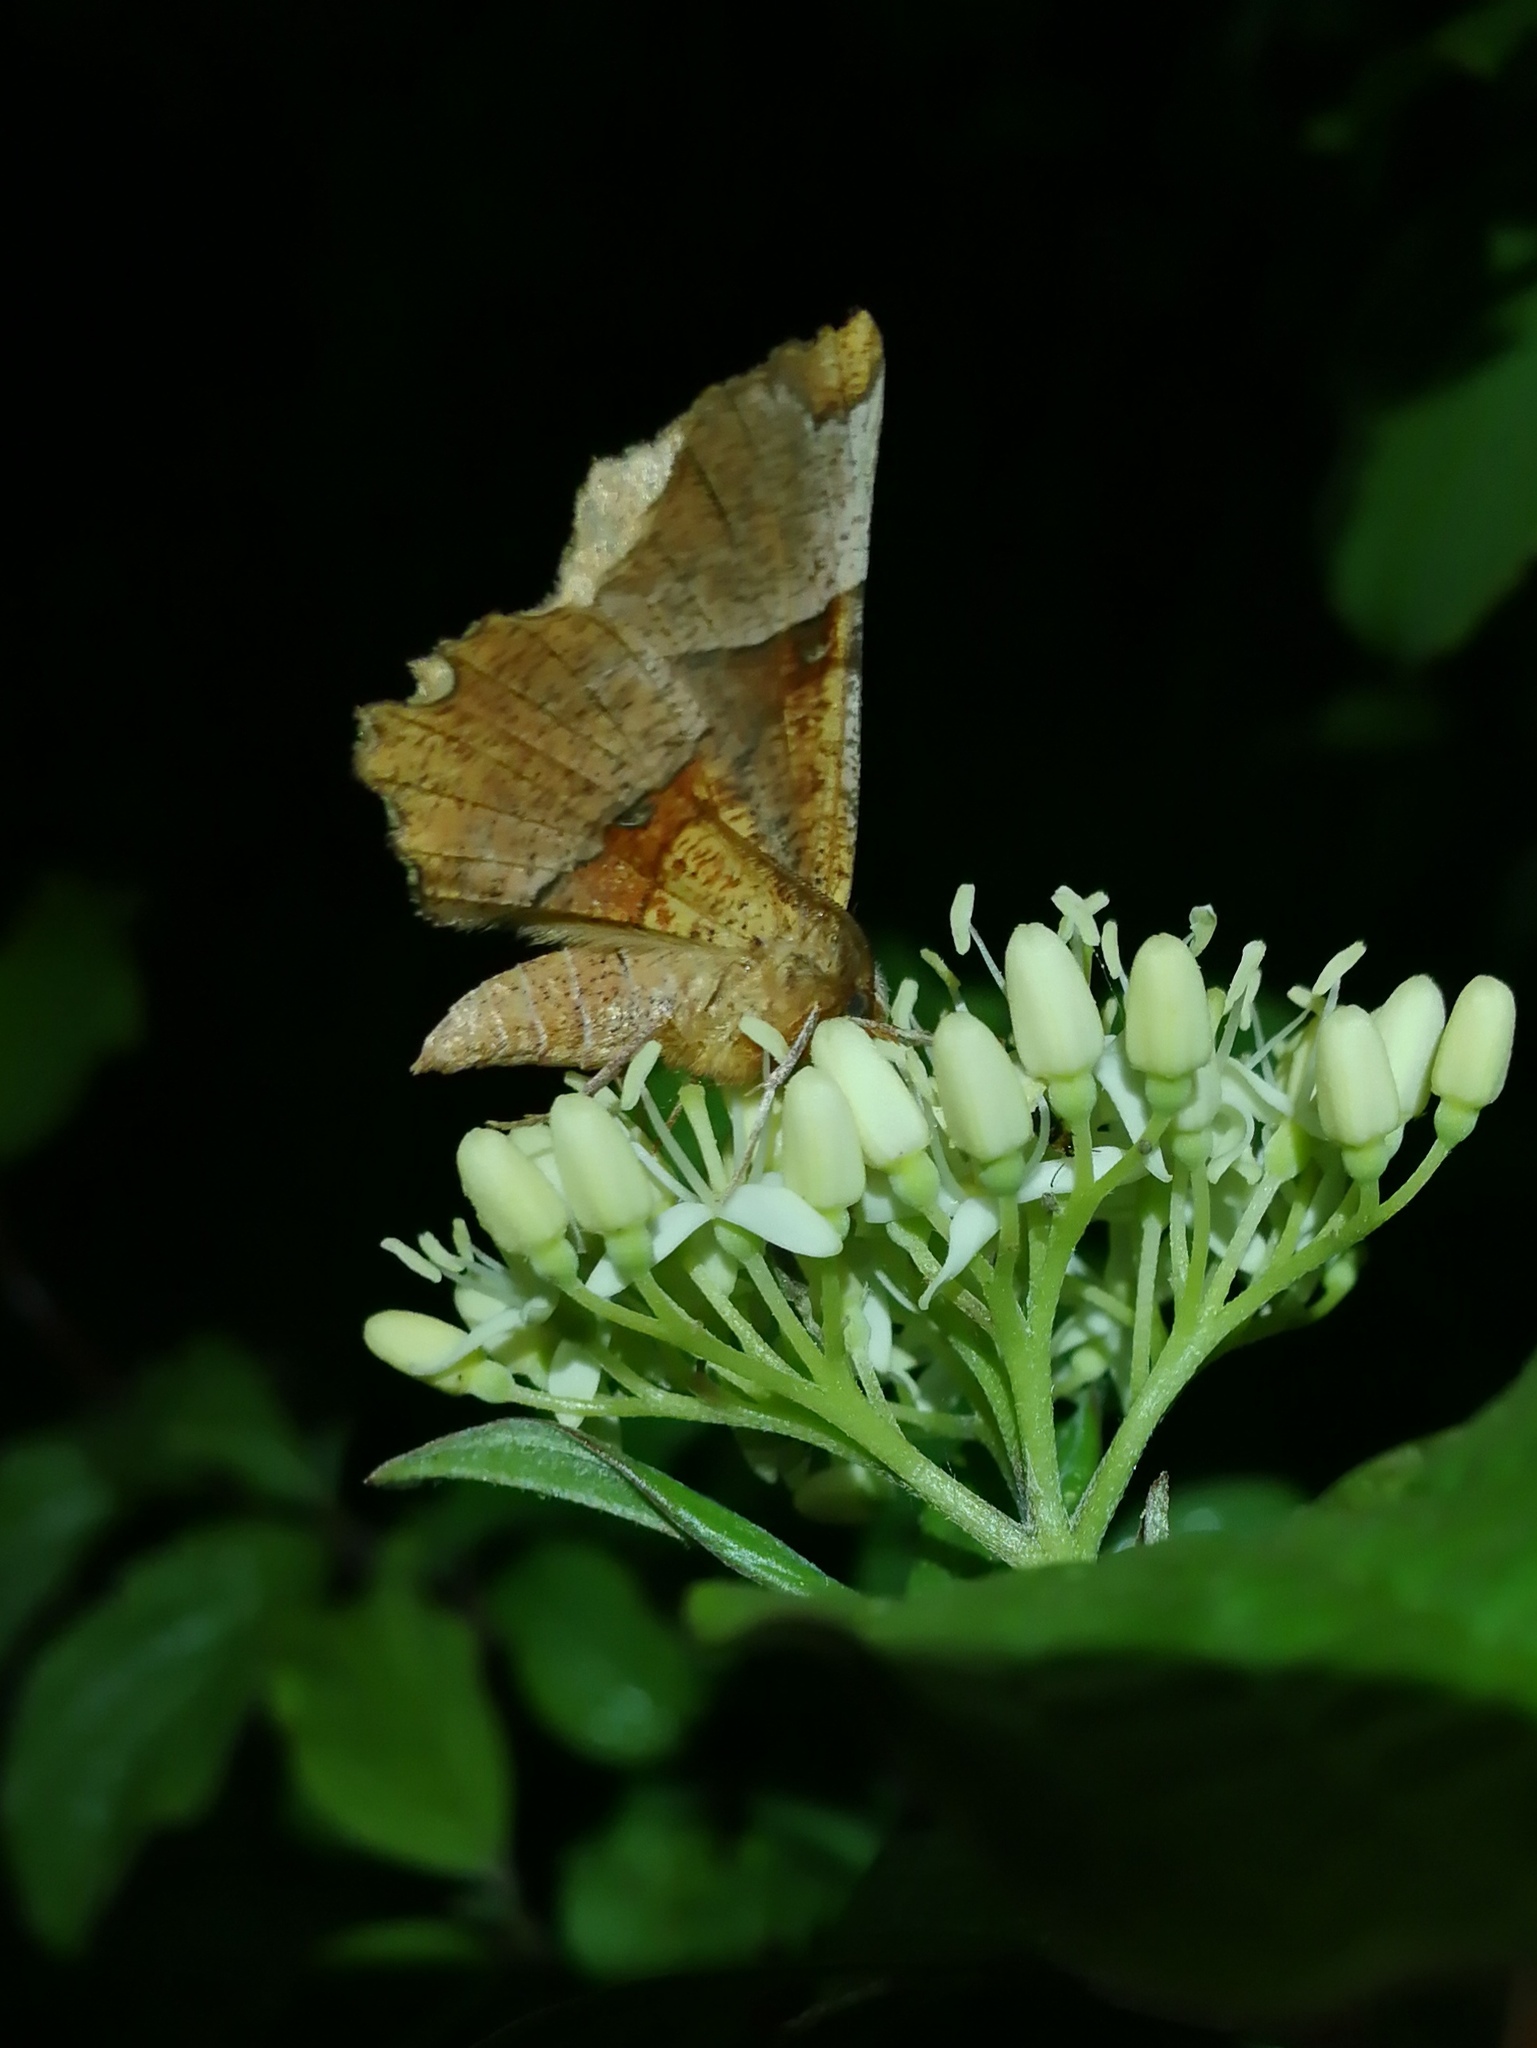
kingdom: Animalia
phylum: Arthropoda
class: Insecta
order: Lepidoptera
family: Geometridae
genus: Selenia
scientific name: Selenia lunularia
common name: Lunar thorn
